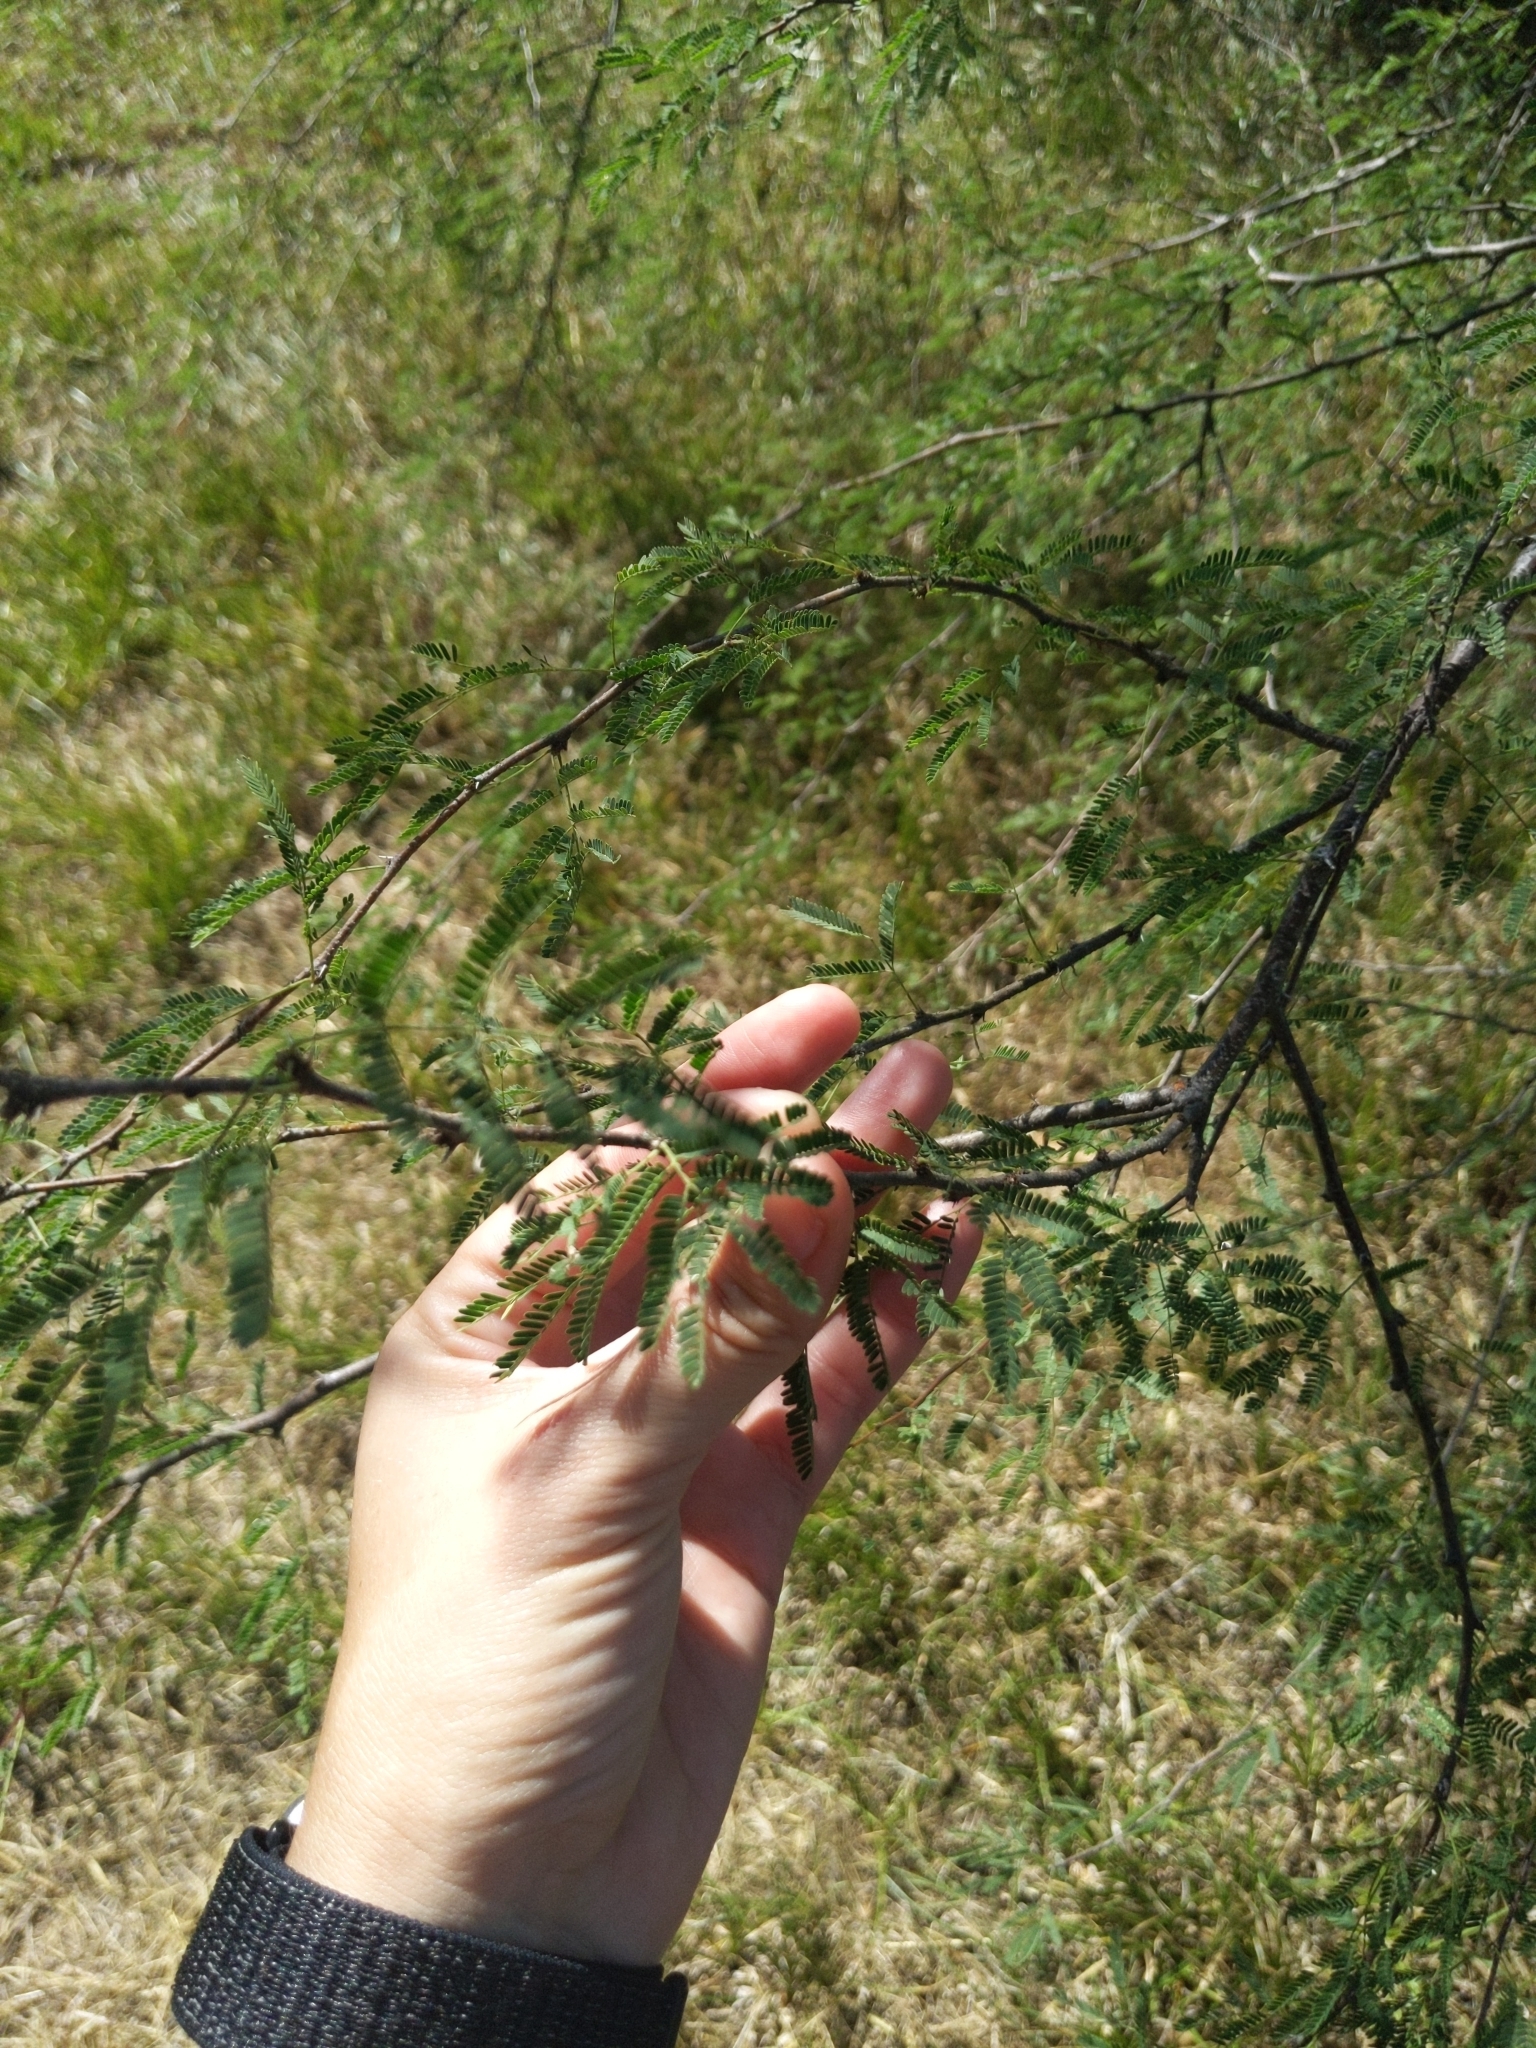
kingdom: Plantae
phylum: Tracheophyta
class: Magnoliopsida
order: Fabales
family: Fabaceae
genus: Vachellia
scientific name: Vachellia farnesiana
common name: Sweet acacia
